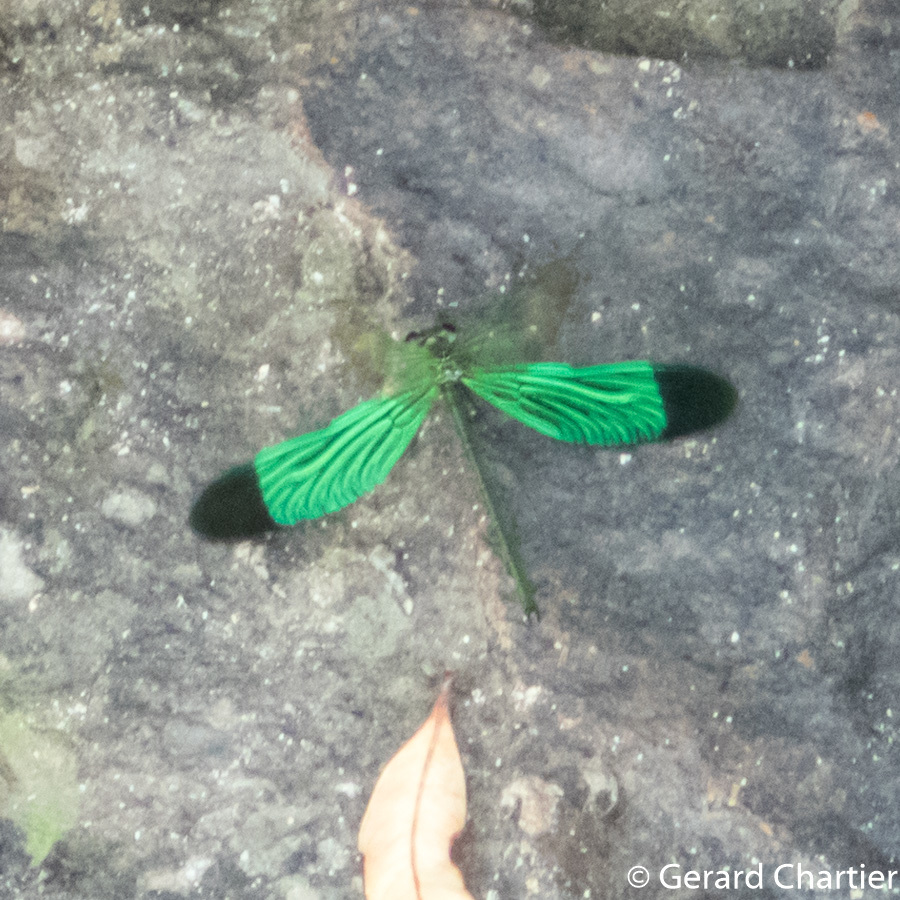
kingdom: Animalia
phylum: Arthropoda
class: Insecta
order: Odonata
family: Calopterygidae
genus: Neurobasis
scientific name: Neurobasis chinensis
